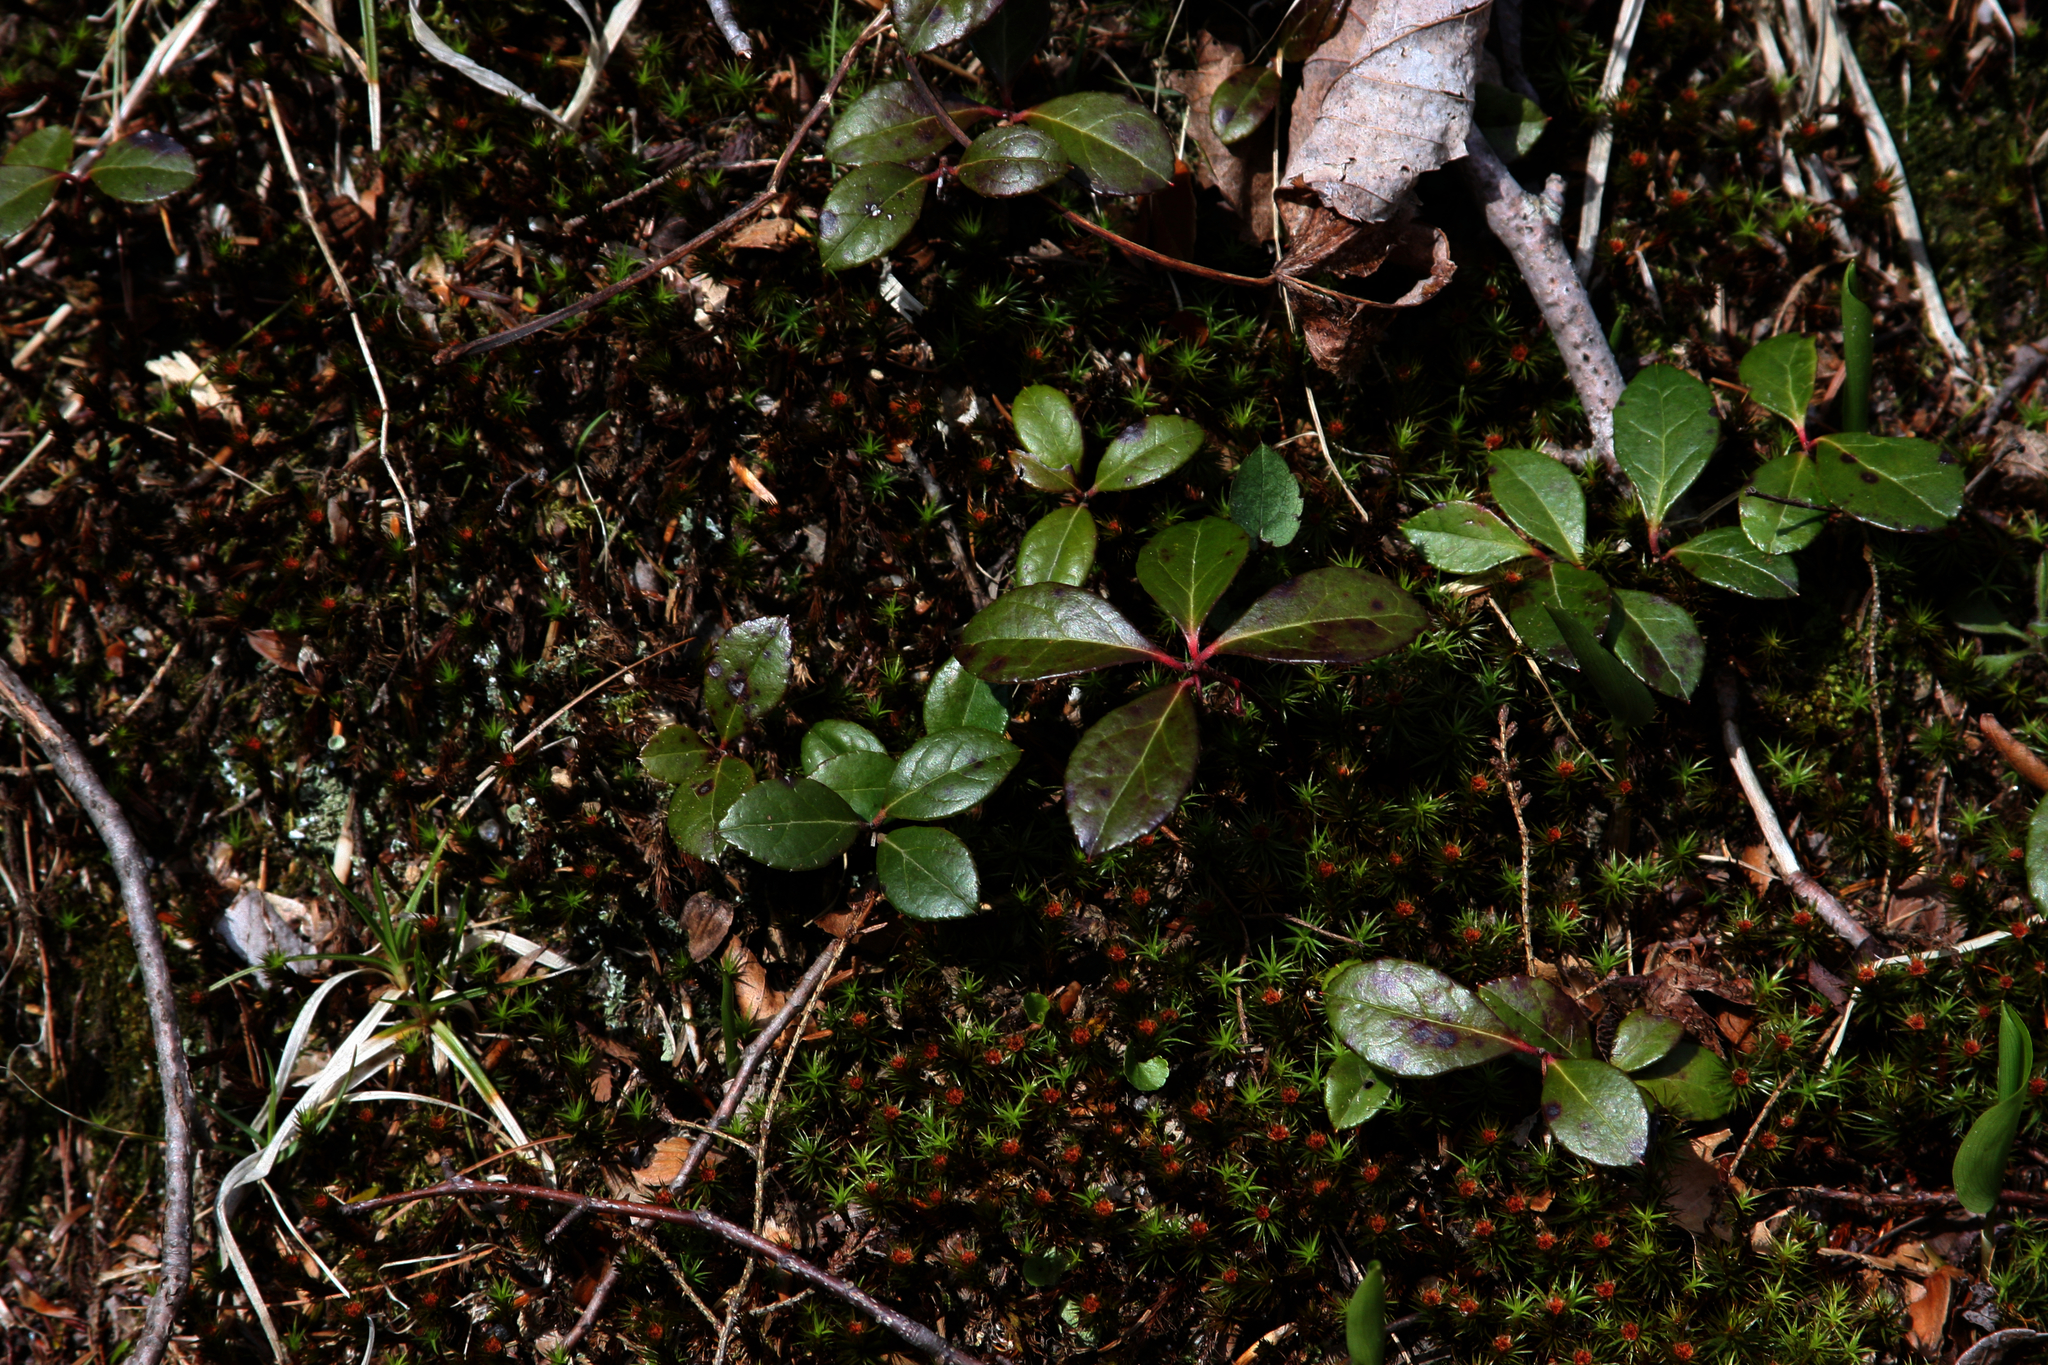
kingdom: Plantae
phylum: Tracheophyta
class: Magnoliopsida
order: Ericales
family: Ericaceae
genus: Gaultheria
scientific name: Gaultheria procumbens
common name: Checkerberry
